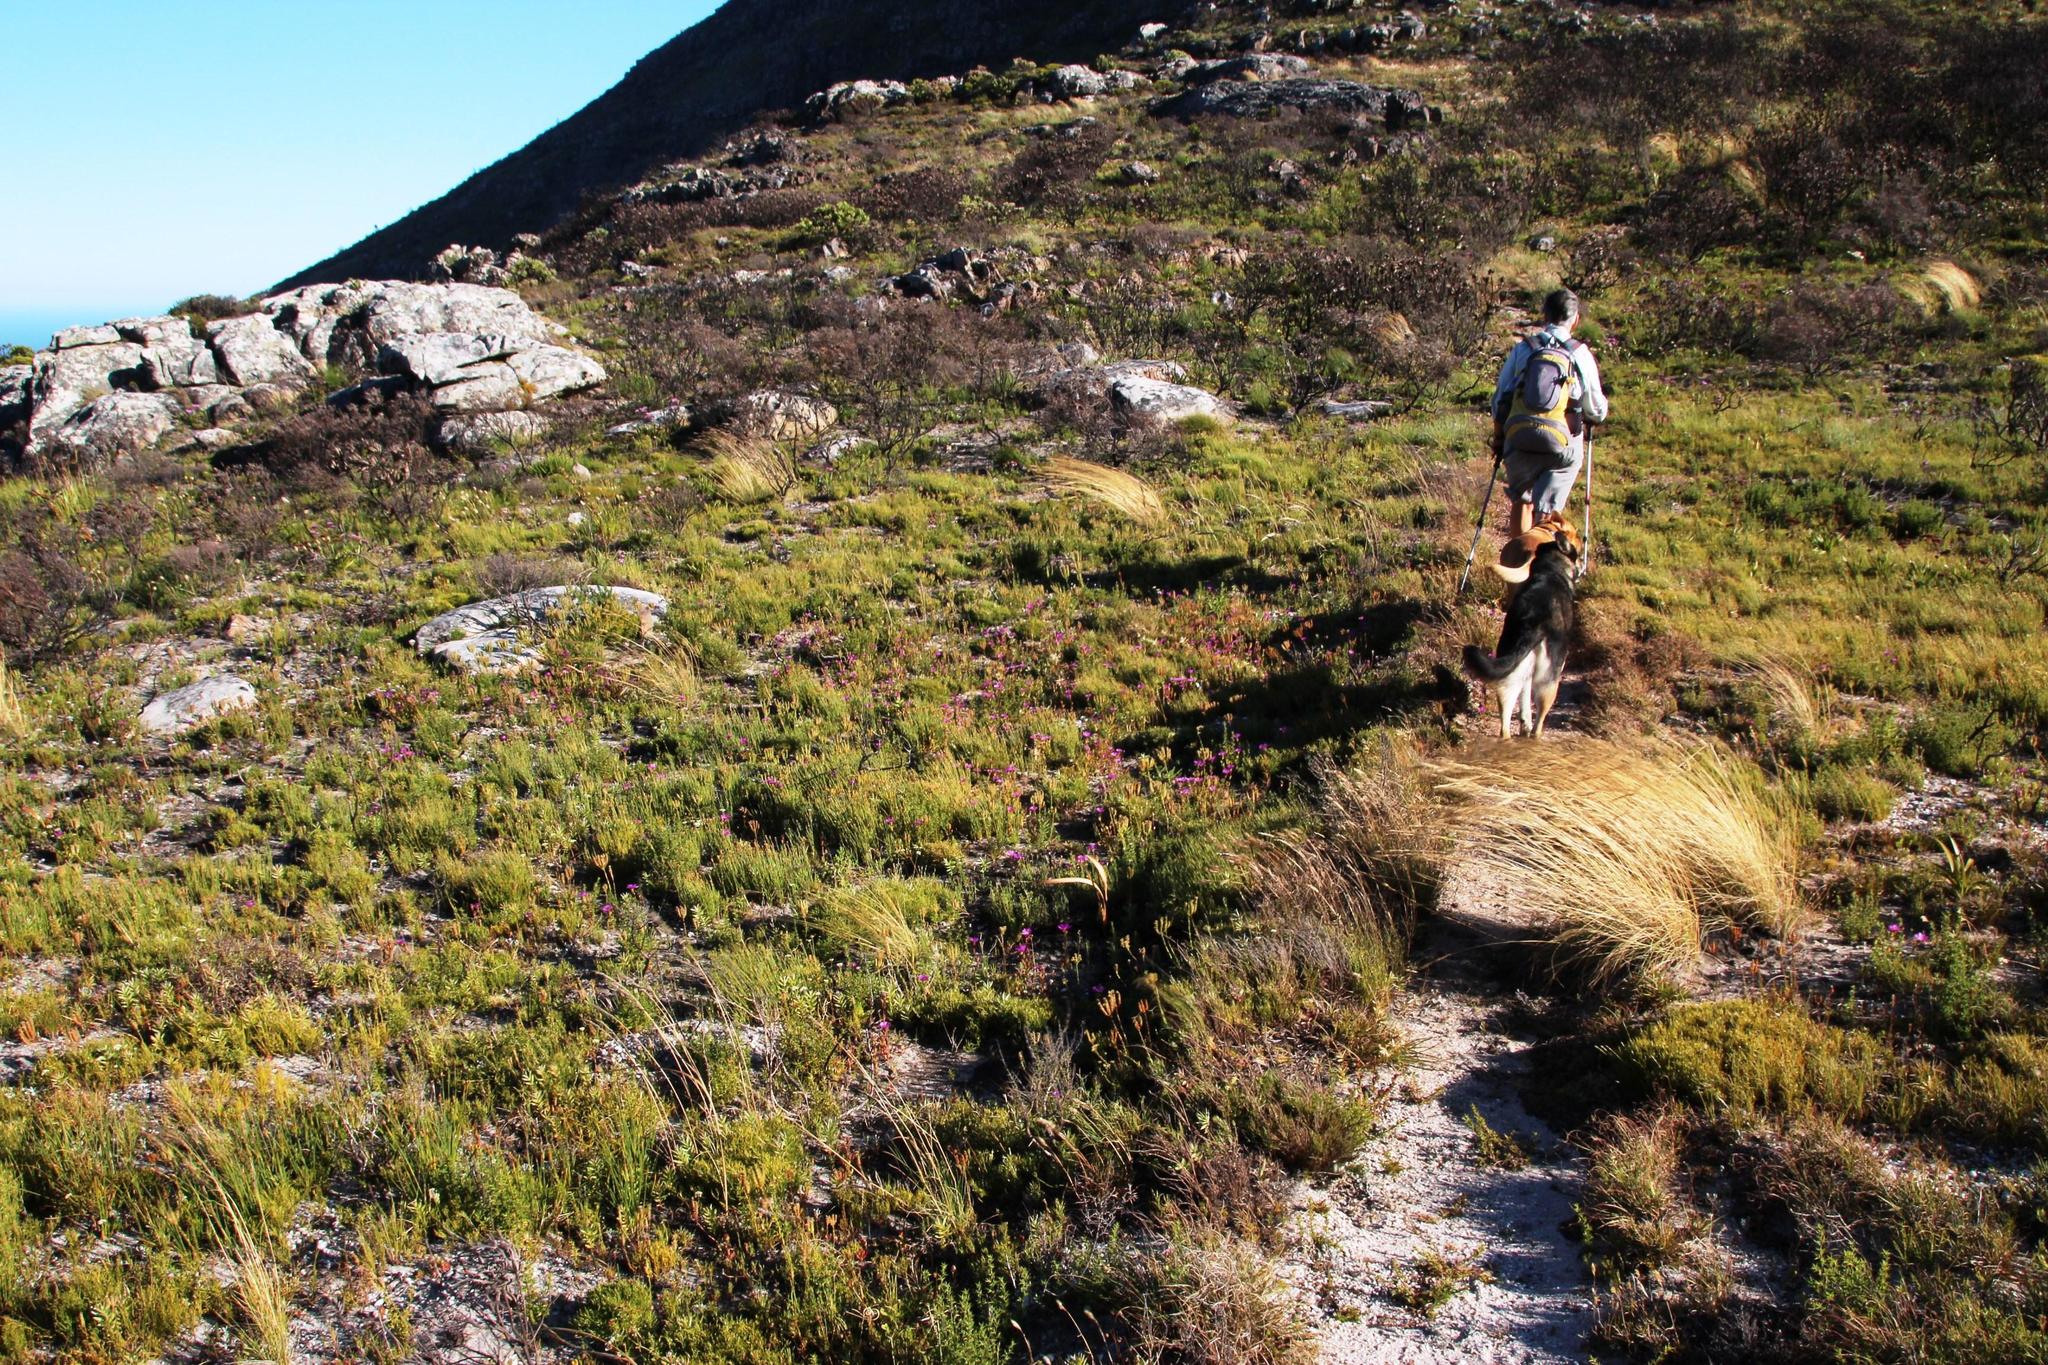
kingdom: Plantae
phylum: Tracheophyta
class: Magnoliopsida
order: Caryophyllales
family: Aizoaceae
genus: Erepsia
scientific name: Erepsia anceps
